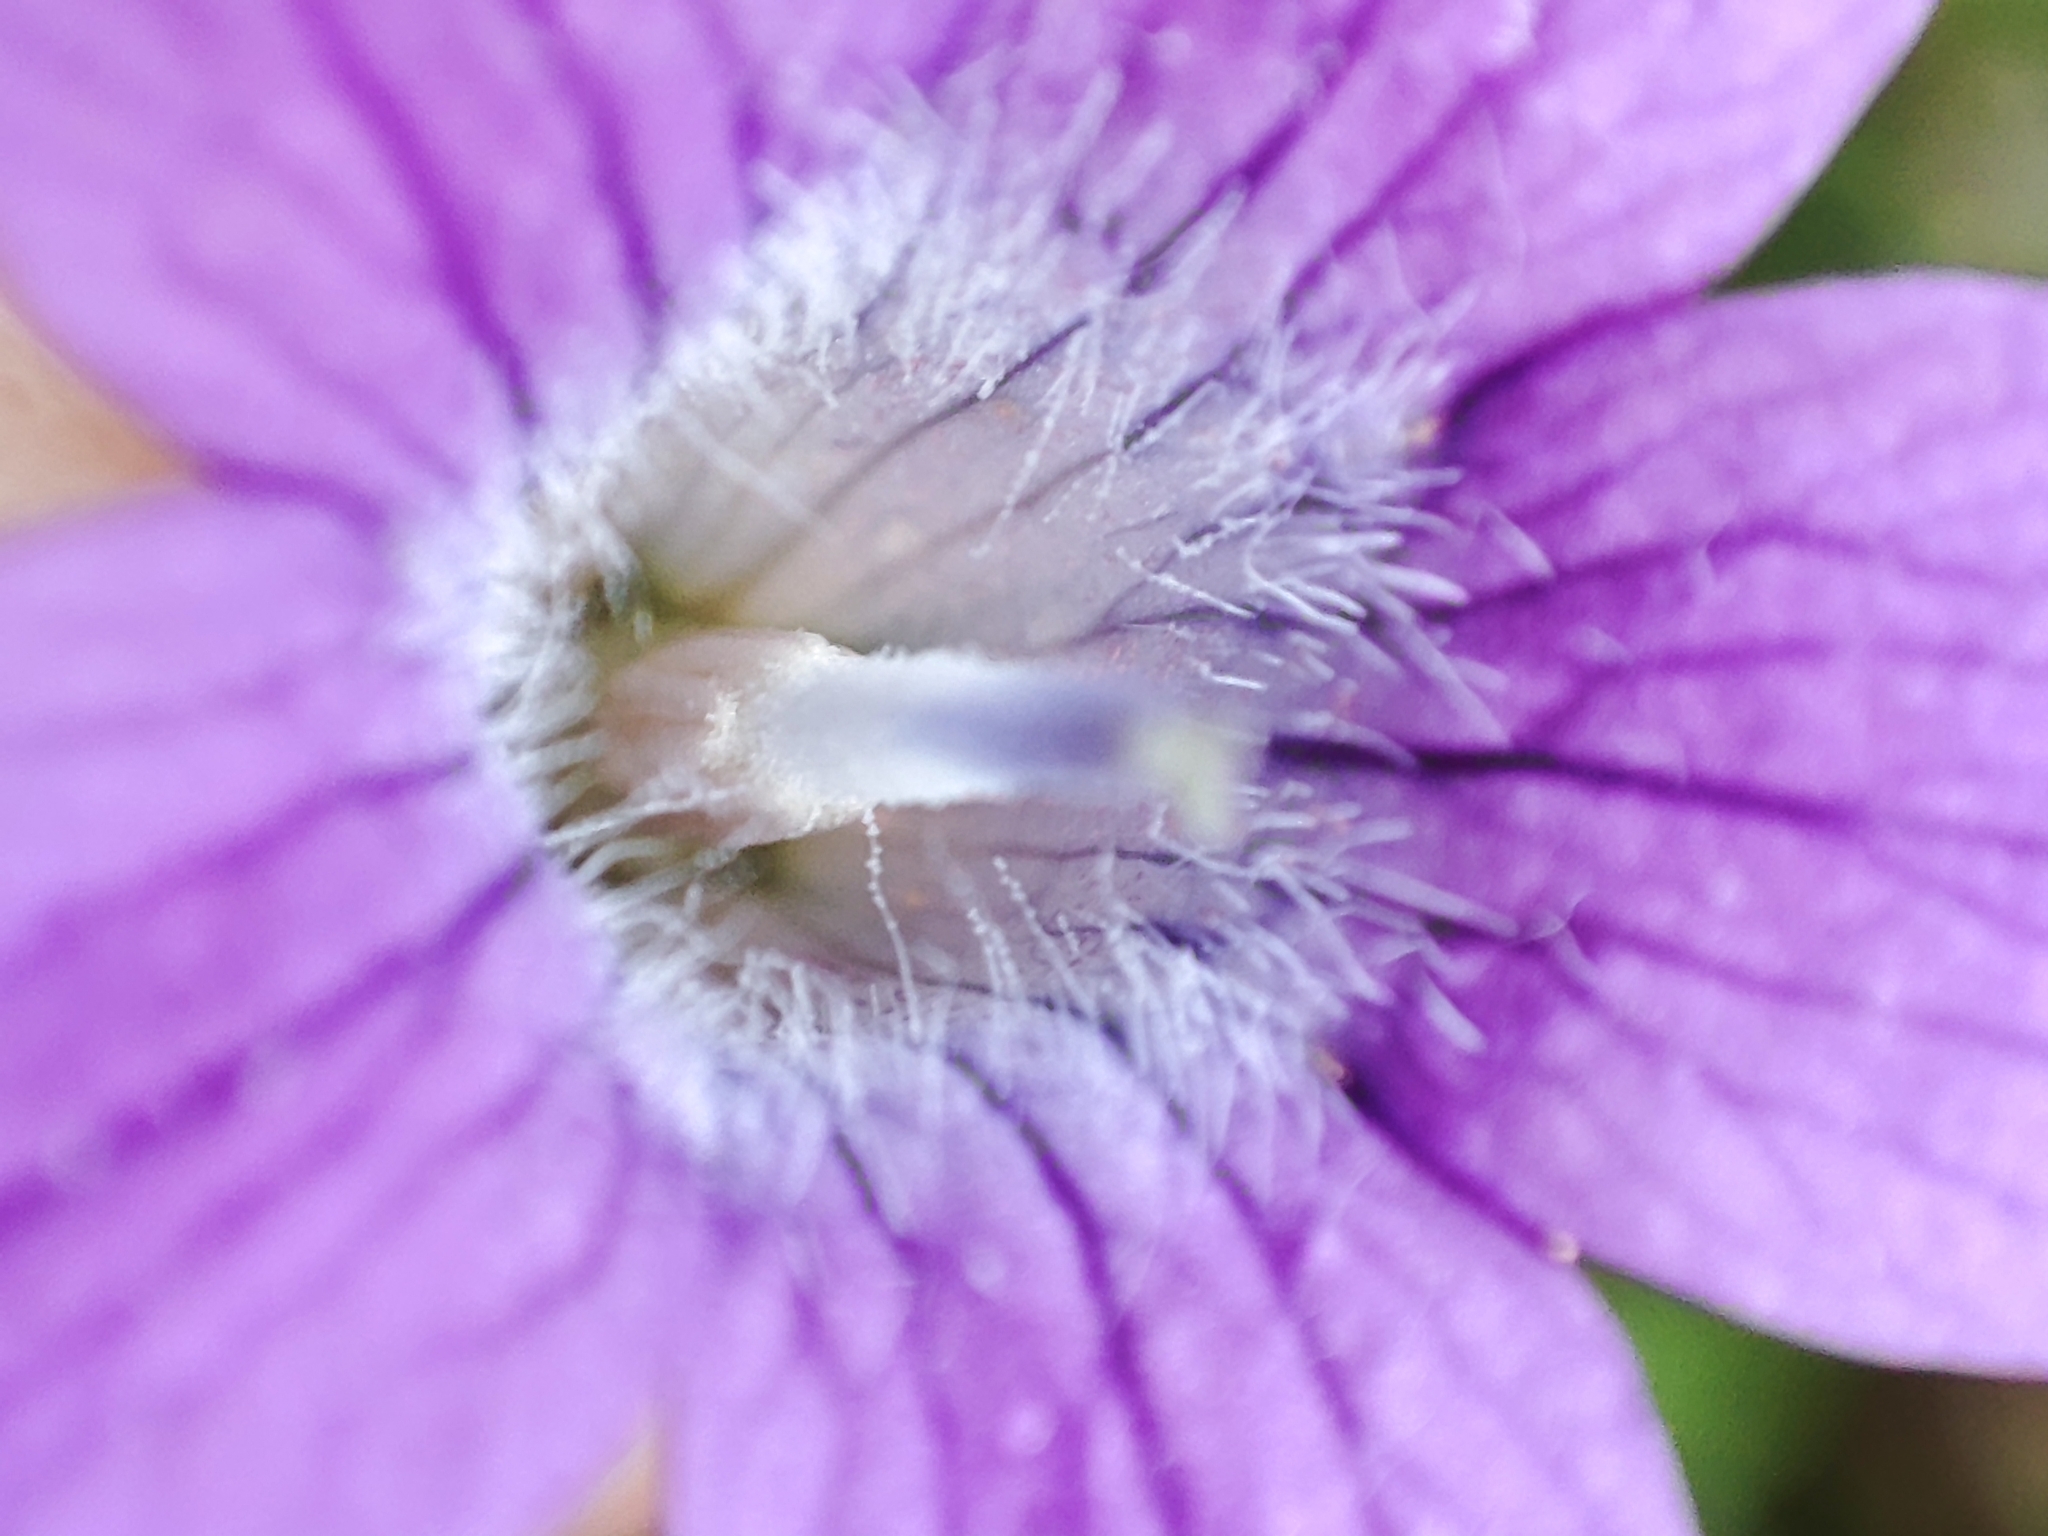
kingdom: Plantae
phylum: Tracheophyta
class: Magnoliopsida
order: Asterales
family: Campanulaceae
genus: Campanula
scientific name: Campanula patula
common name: Spreading bellflower
